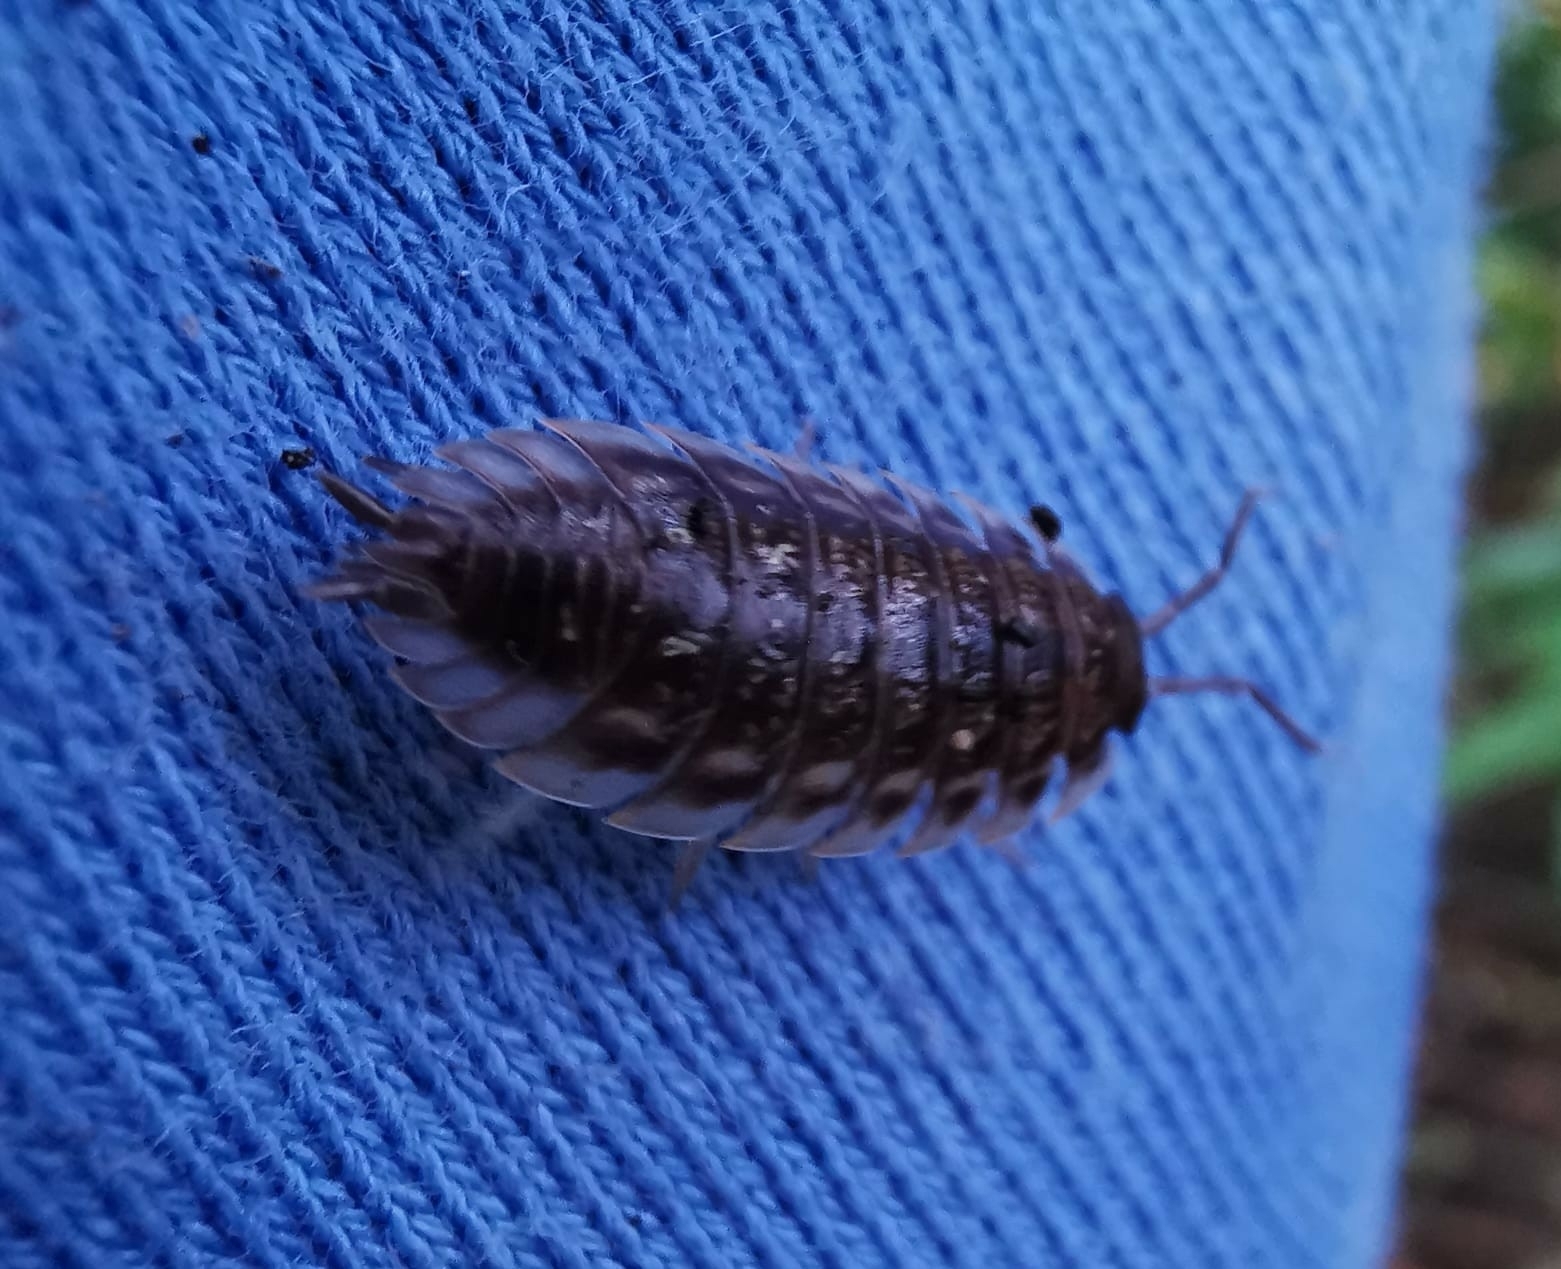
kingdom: Animalia
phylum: Arthropoda
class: Malacostraca
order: Isopoda
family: Oniscidae
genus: Oniscus
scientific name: Oniscus asellus
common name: Common shiny woodlouse
